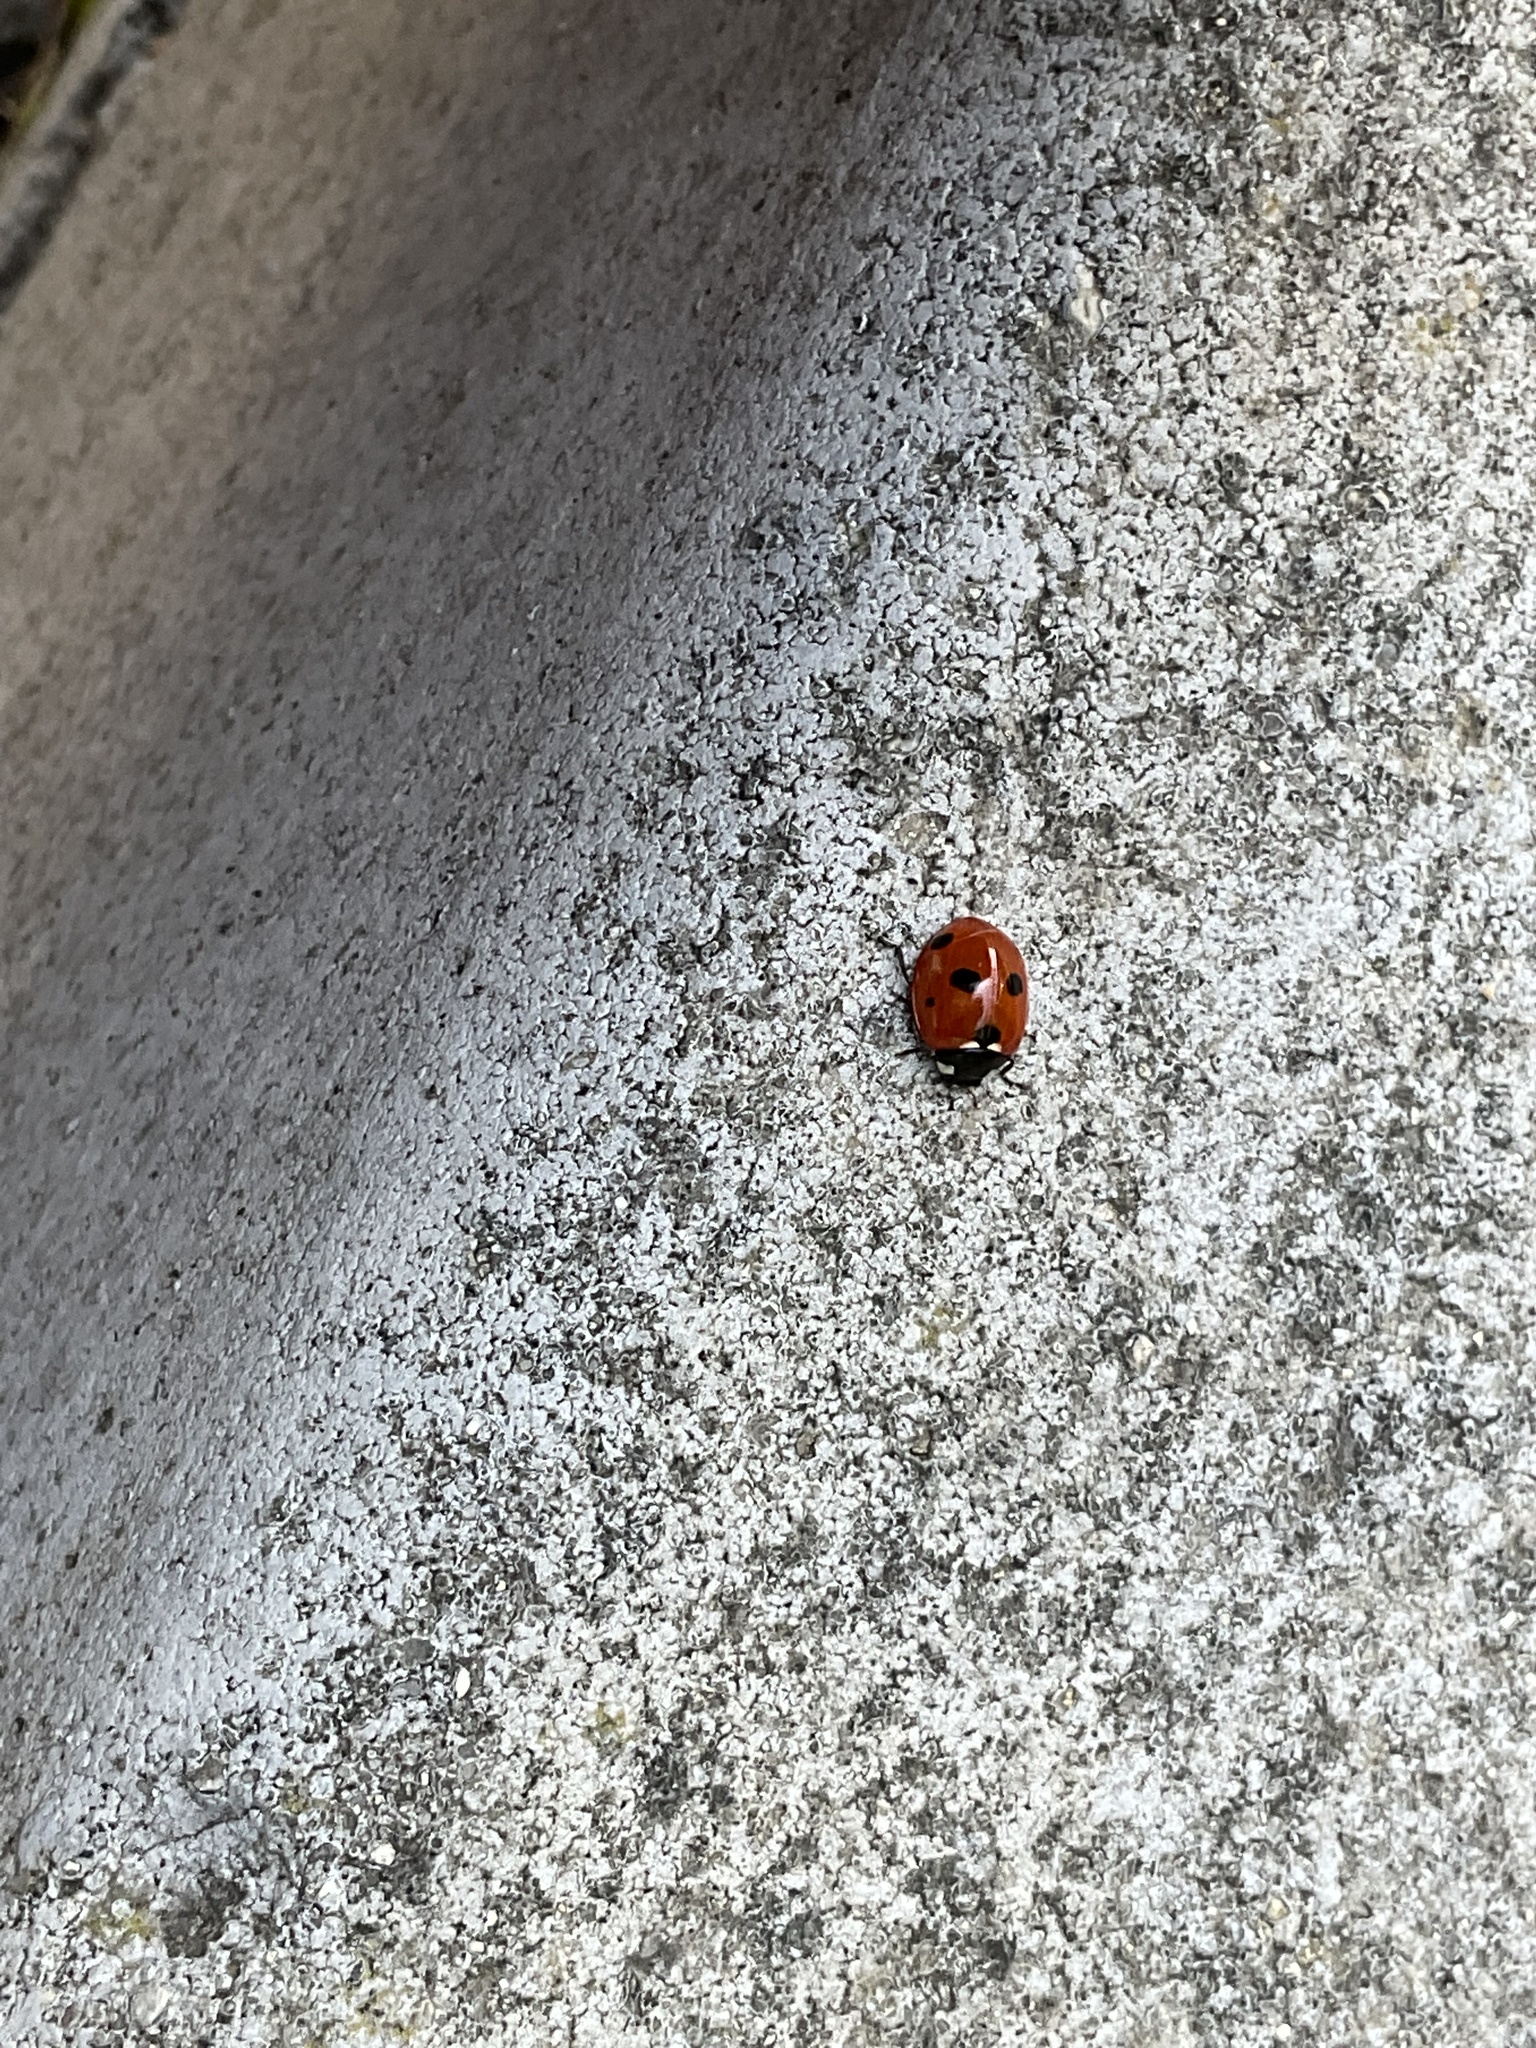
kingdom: Animalia
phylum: Arthropoda
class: Insecta
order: Coleoptera
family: Coccinellidae
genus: Coccinella
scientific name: Coccinella septempunctata
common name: Sevenspotted lady beetle
